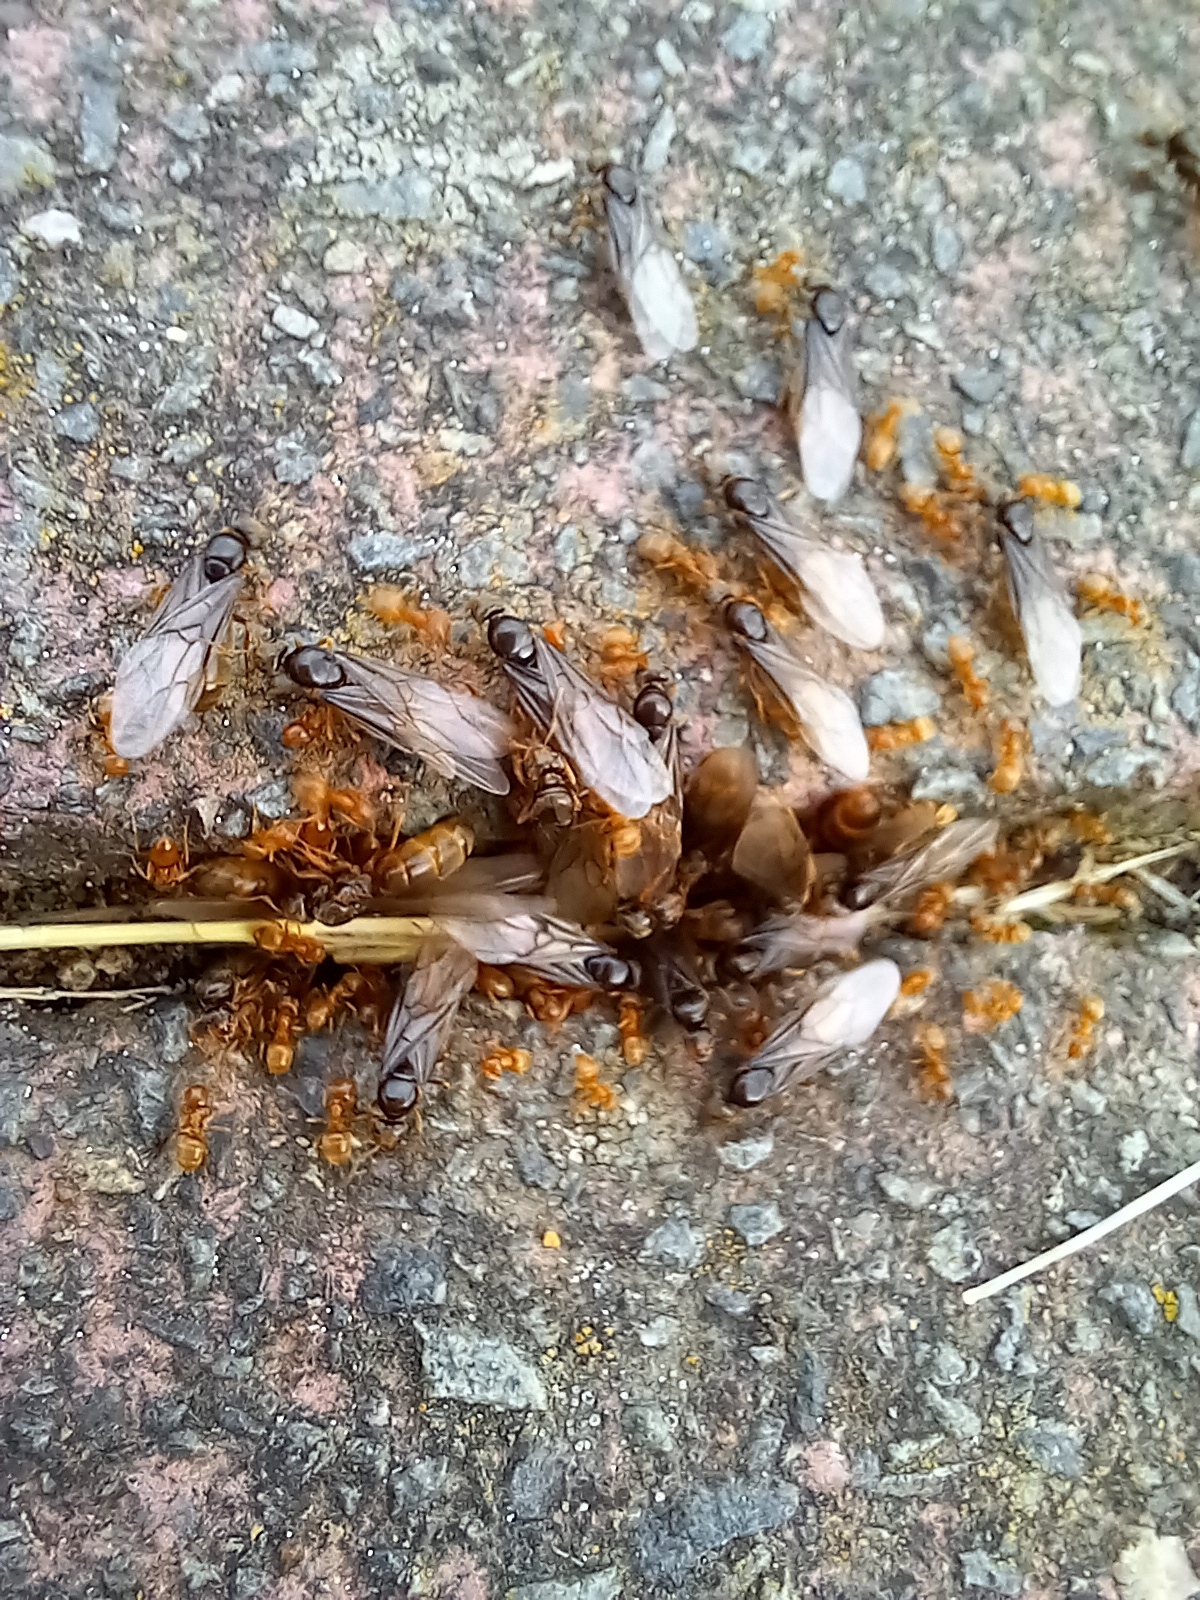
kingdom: Animalia
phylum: Arthropoda
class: Insecta
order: Hymenoptera
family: Formicidae
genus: Lasius
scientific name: Lasius flavus
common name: Blond field ant
